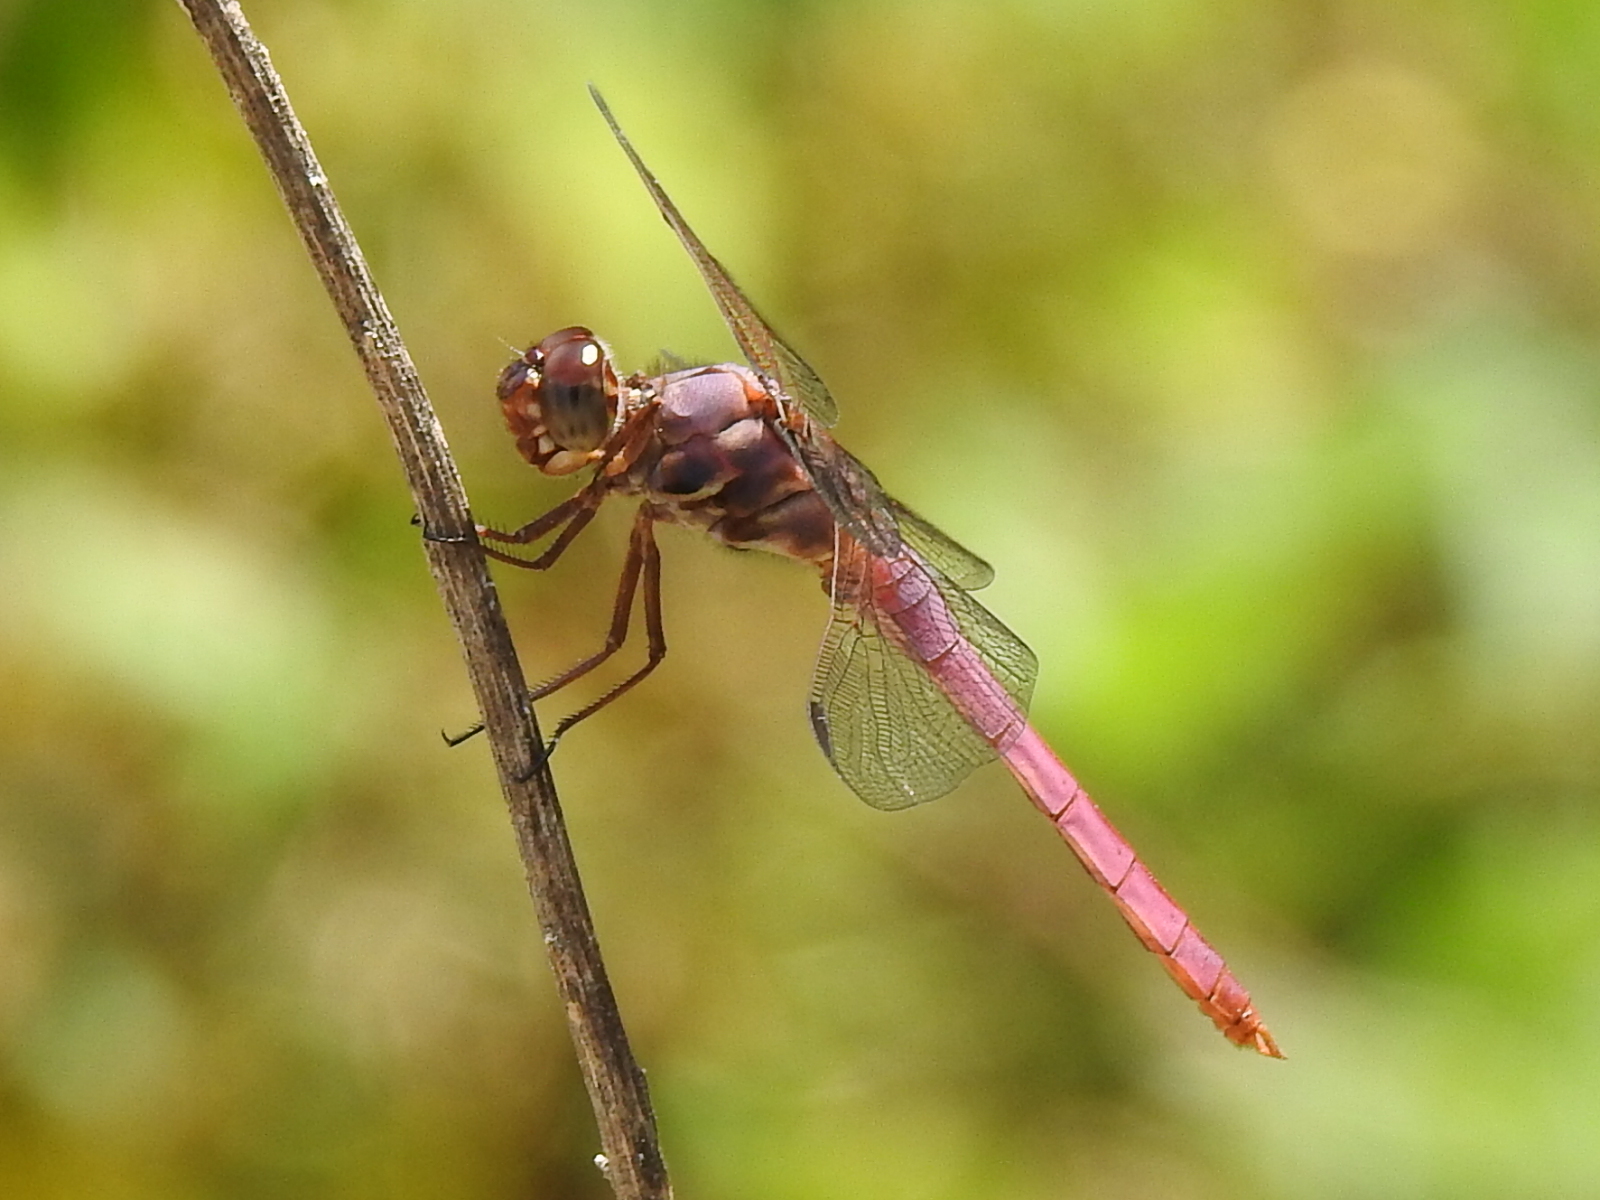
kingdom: Animalia
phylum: Arthropoda
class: Insecta
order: Odonata
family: Libellulidae
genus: Orthemis
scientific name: Orthemis ferruginea
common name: Roseate skimmer
